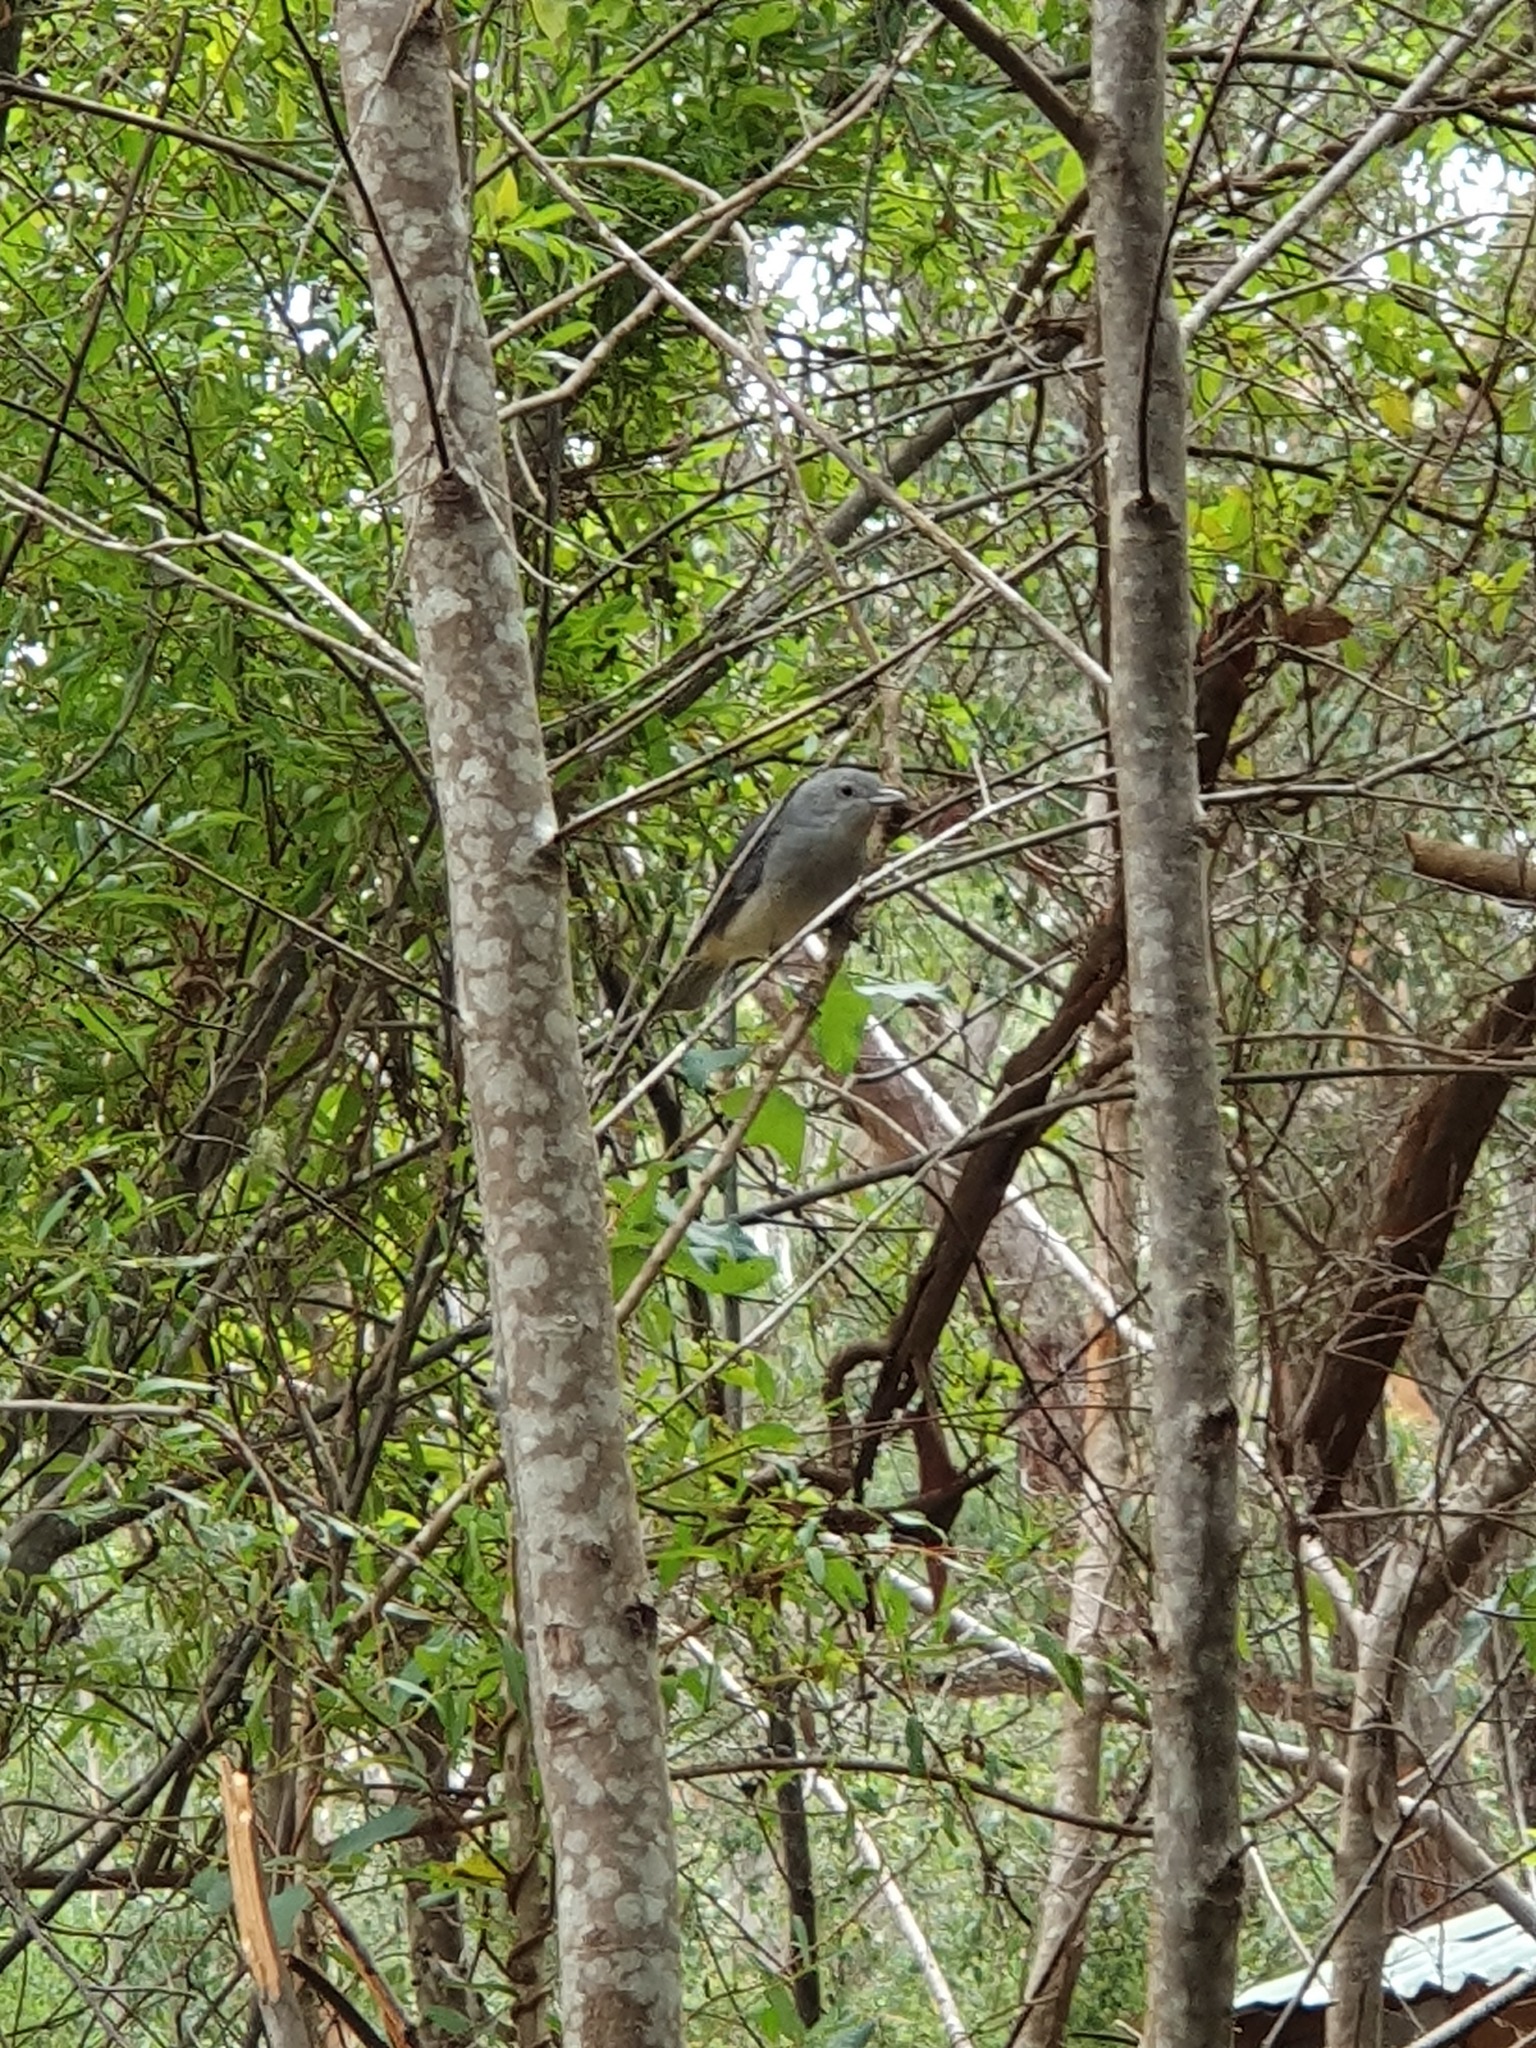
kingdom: Animalia
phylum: Chordata
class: Aves
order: Passeriformes
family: Pachycephalidae
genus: Colluricincla
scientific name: Colluricincla harmonica
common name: Grey shrikethrush
